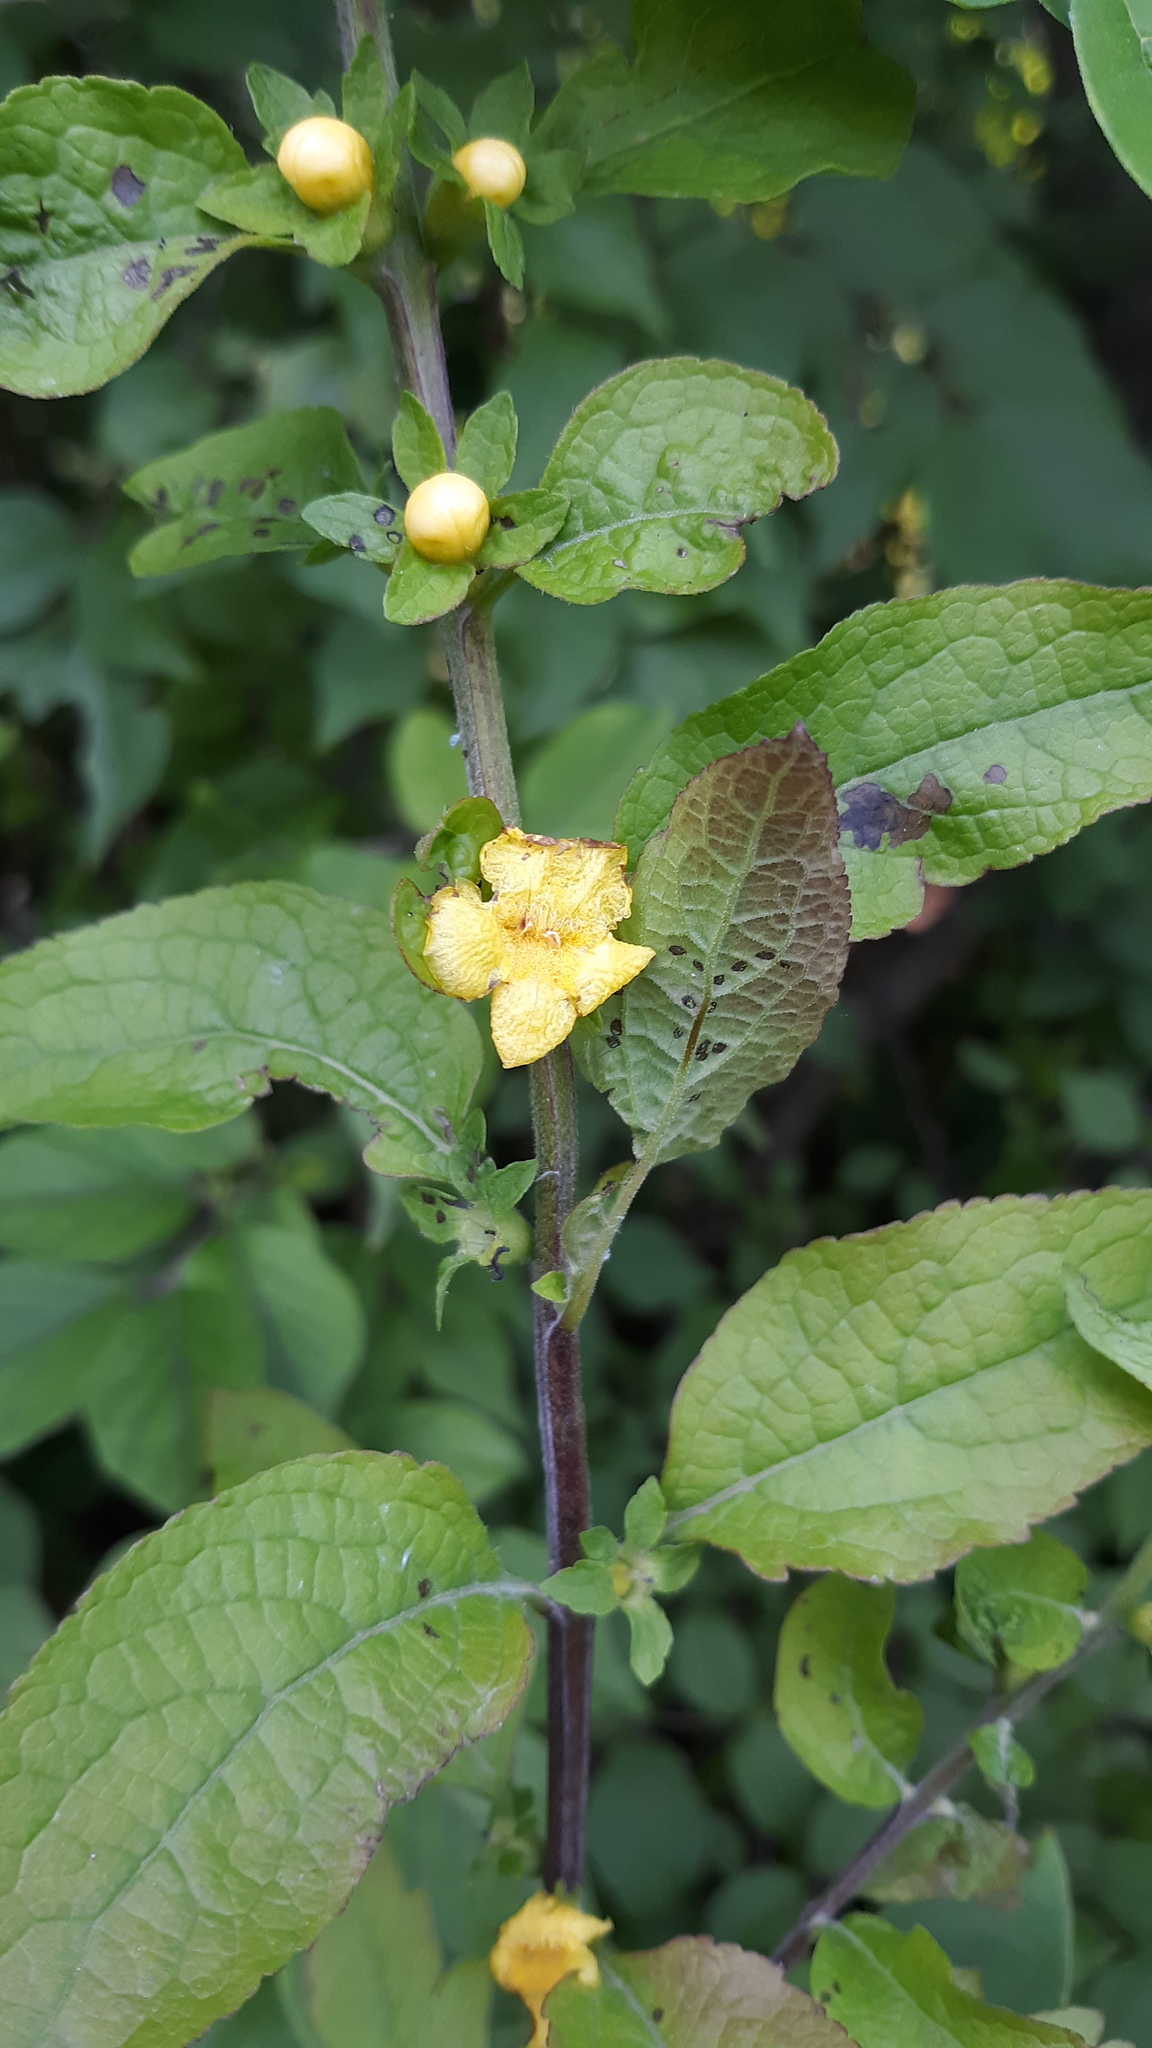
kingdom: Plantae
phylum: Tracheophyta
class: Magnoliopsida
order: Lamiales
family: Orobanchaceae
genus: Dasistoma
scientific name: Dasistoma macrophyllum
